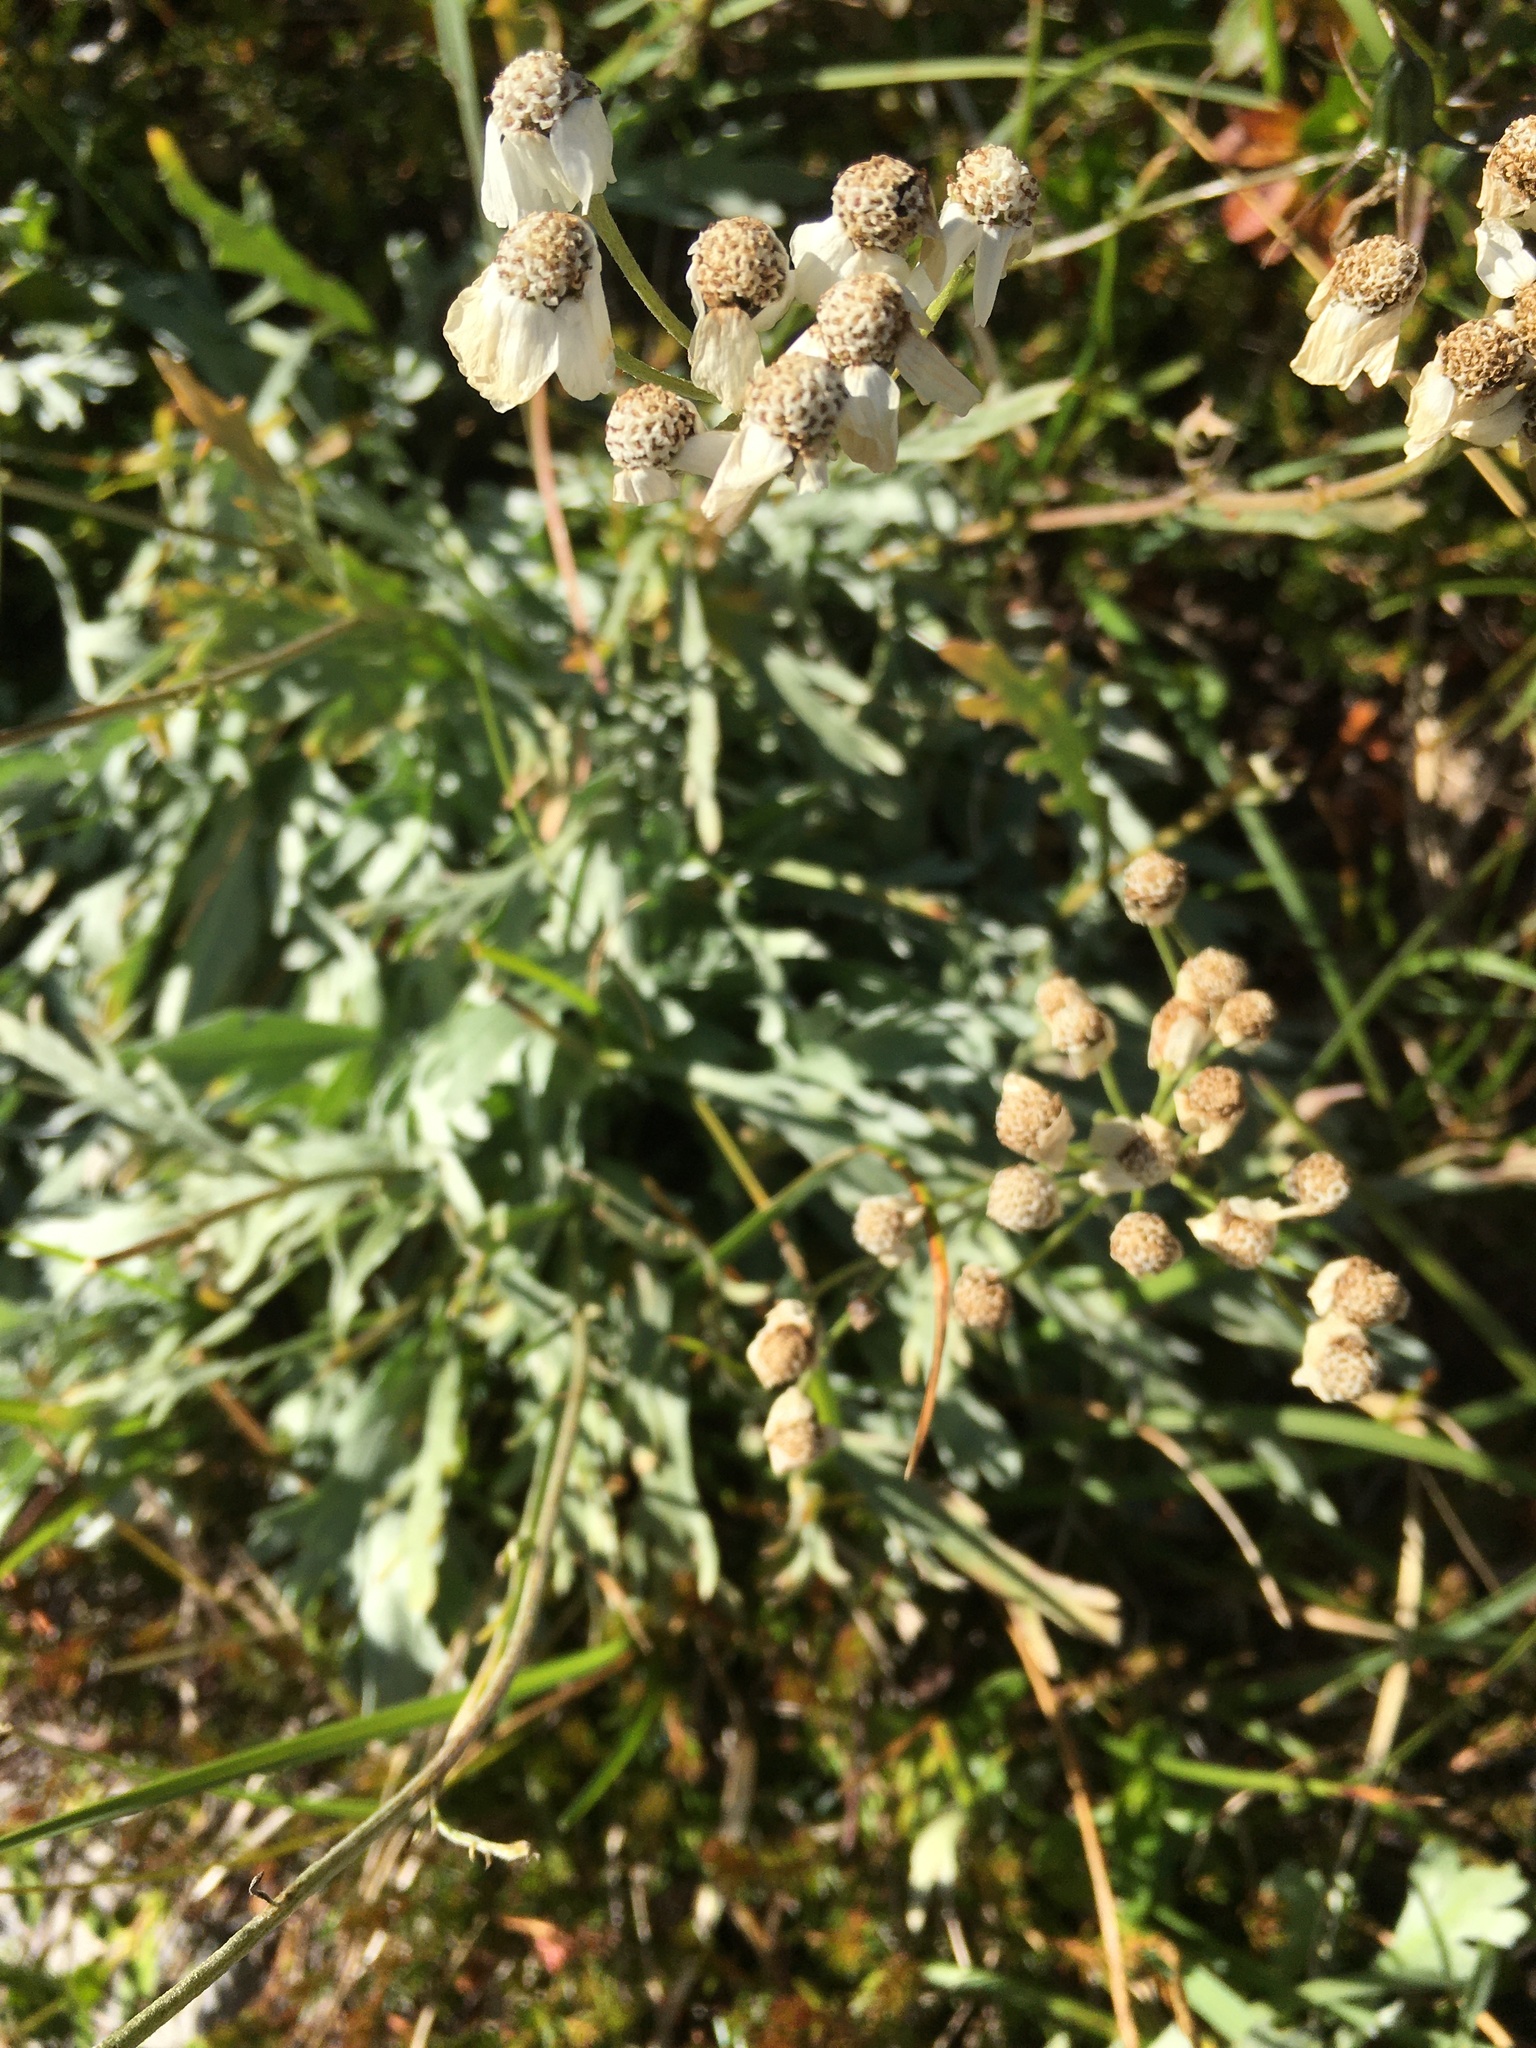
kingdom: Plantae
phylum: Tracheophyta
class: Magnoliopsida
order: Asterales
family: Asteraceae
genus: Achillea
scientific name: Achillea clavennae
